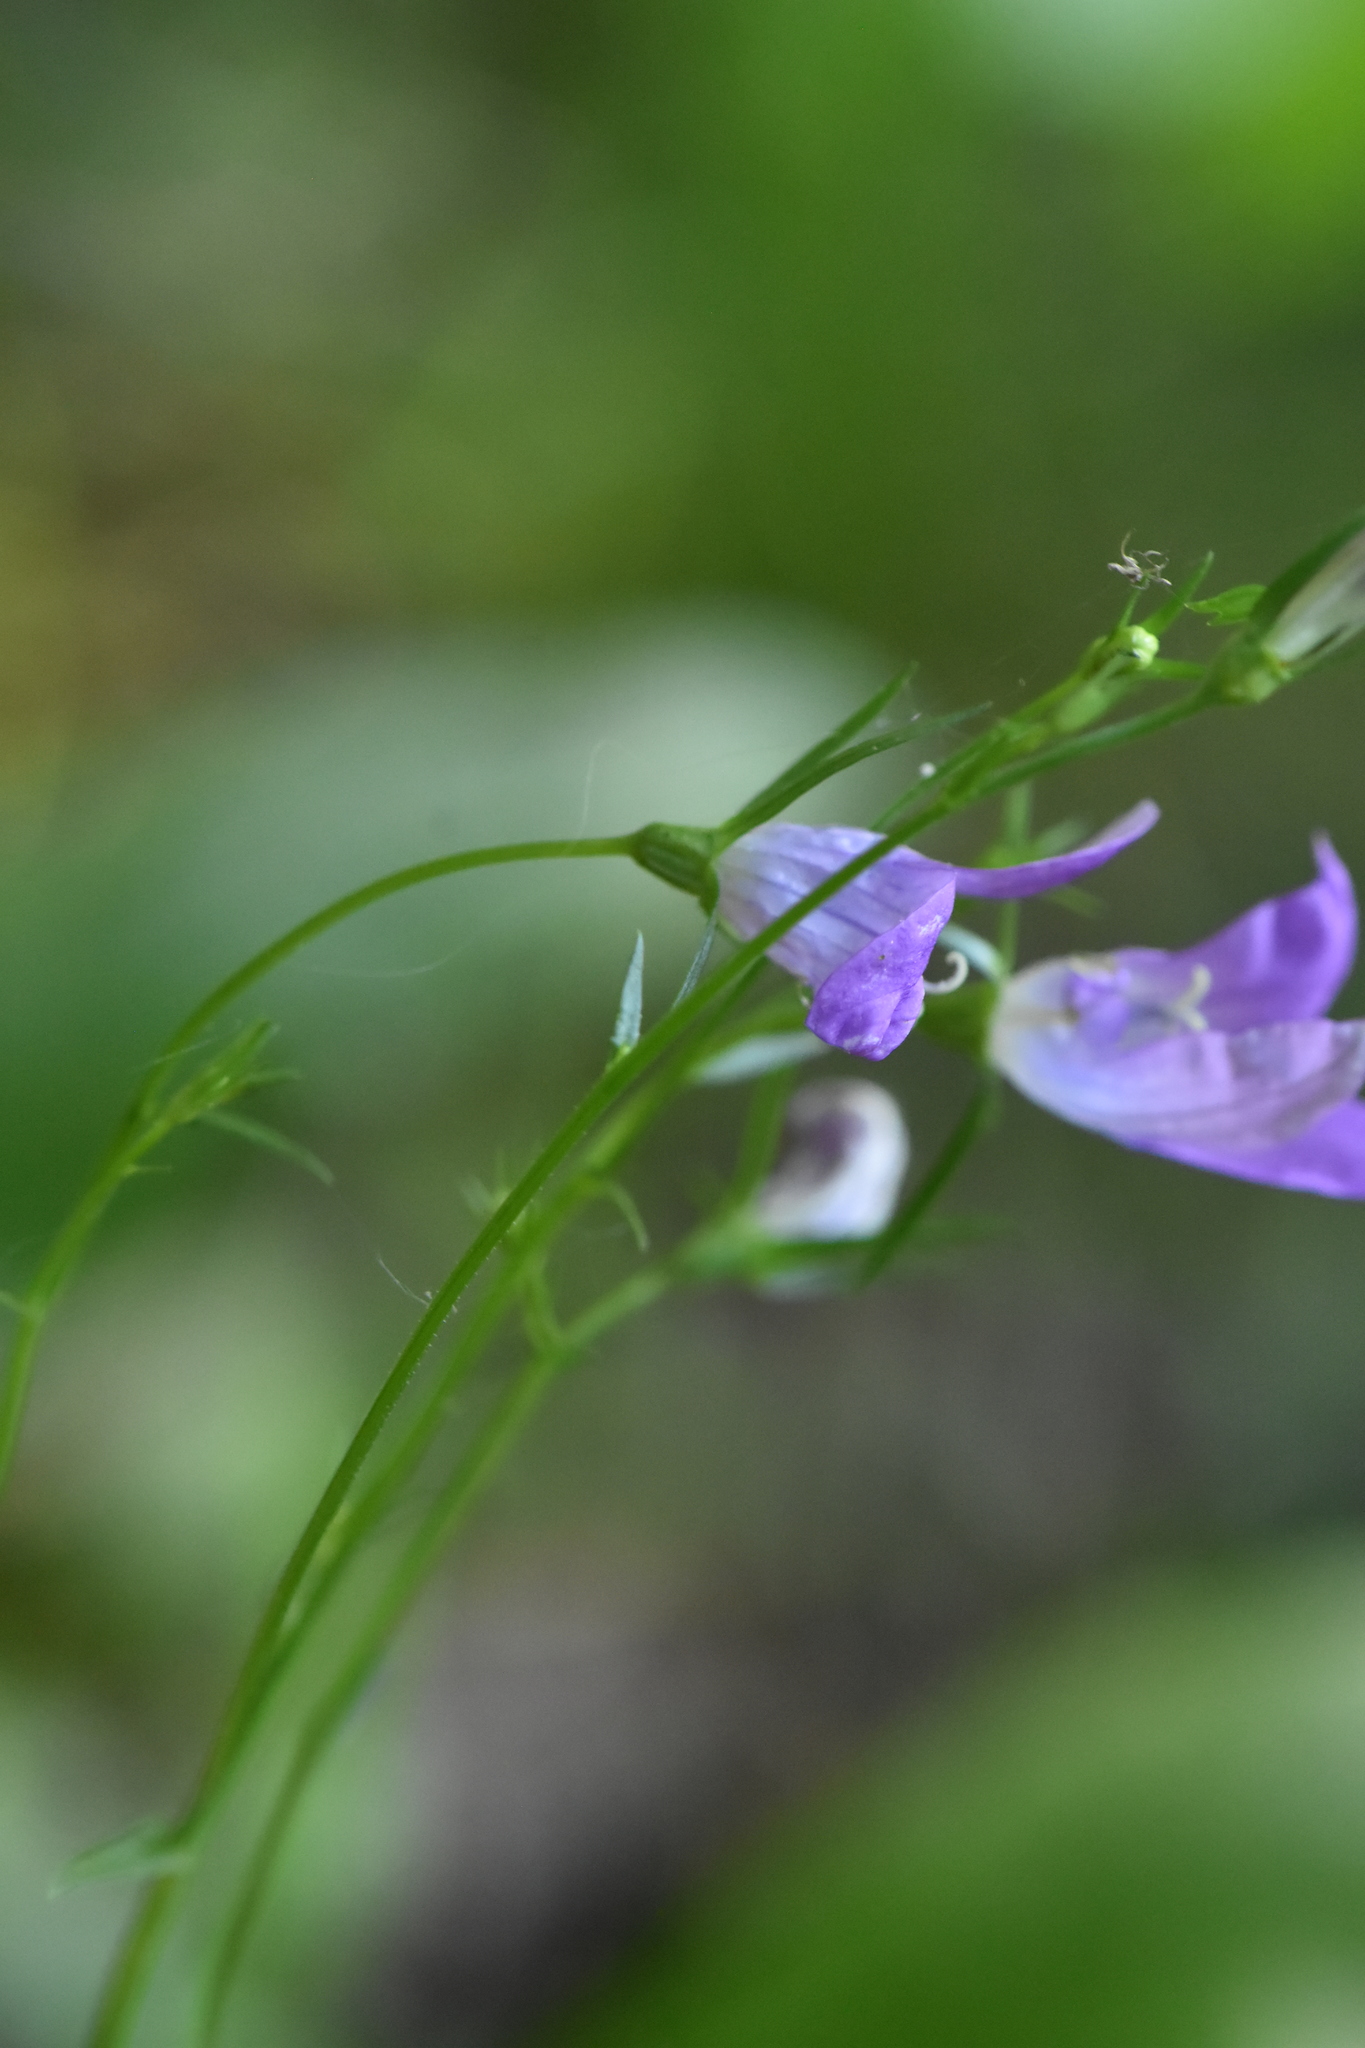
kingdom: Plantae
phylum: Tracheophyta
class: Magnoliopsida
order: Asterales
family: Campanulaceae
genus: Campanula
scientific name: Campanula patula
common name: Spreading bellflower
